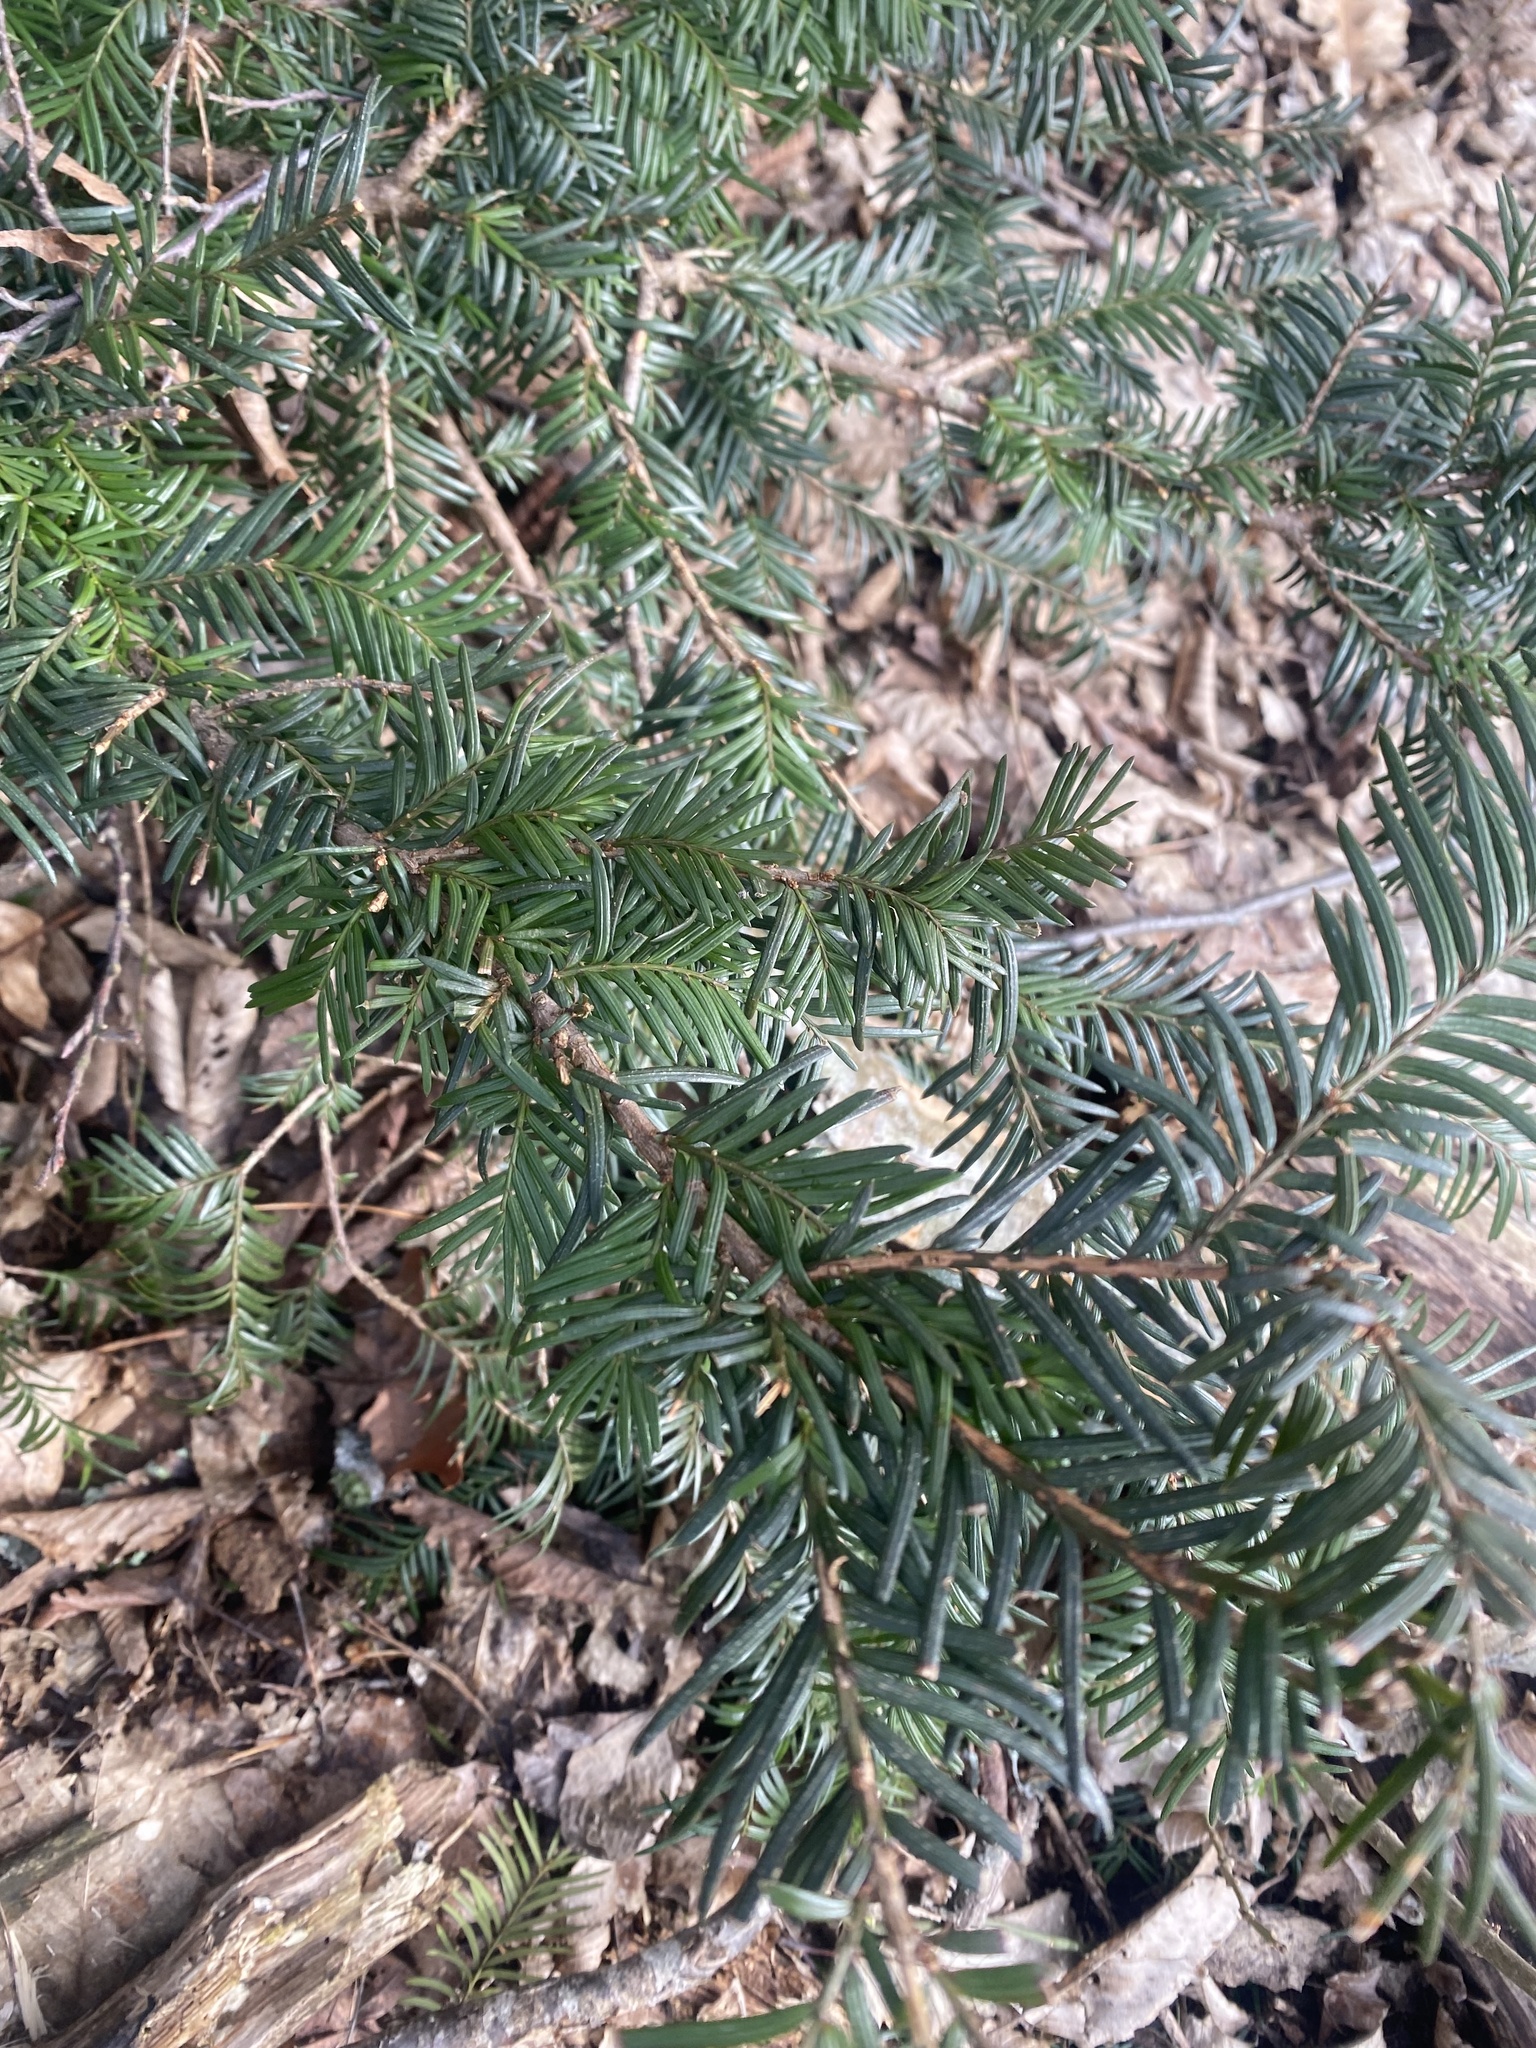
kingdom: Plantae
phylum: Tracheophyta
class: Pinopsida
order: Pinales
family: Taxaceae
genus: Taxus
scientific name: Taxus baccata
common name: Yew
